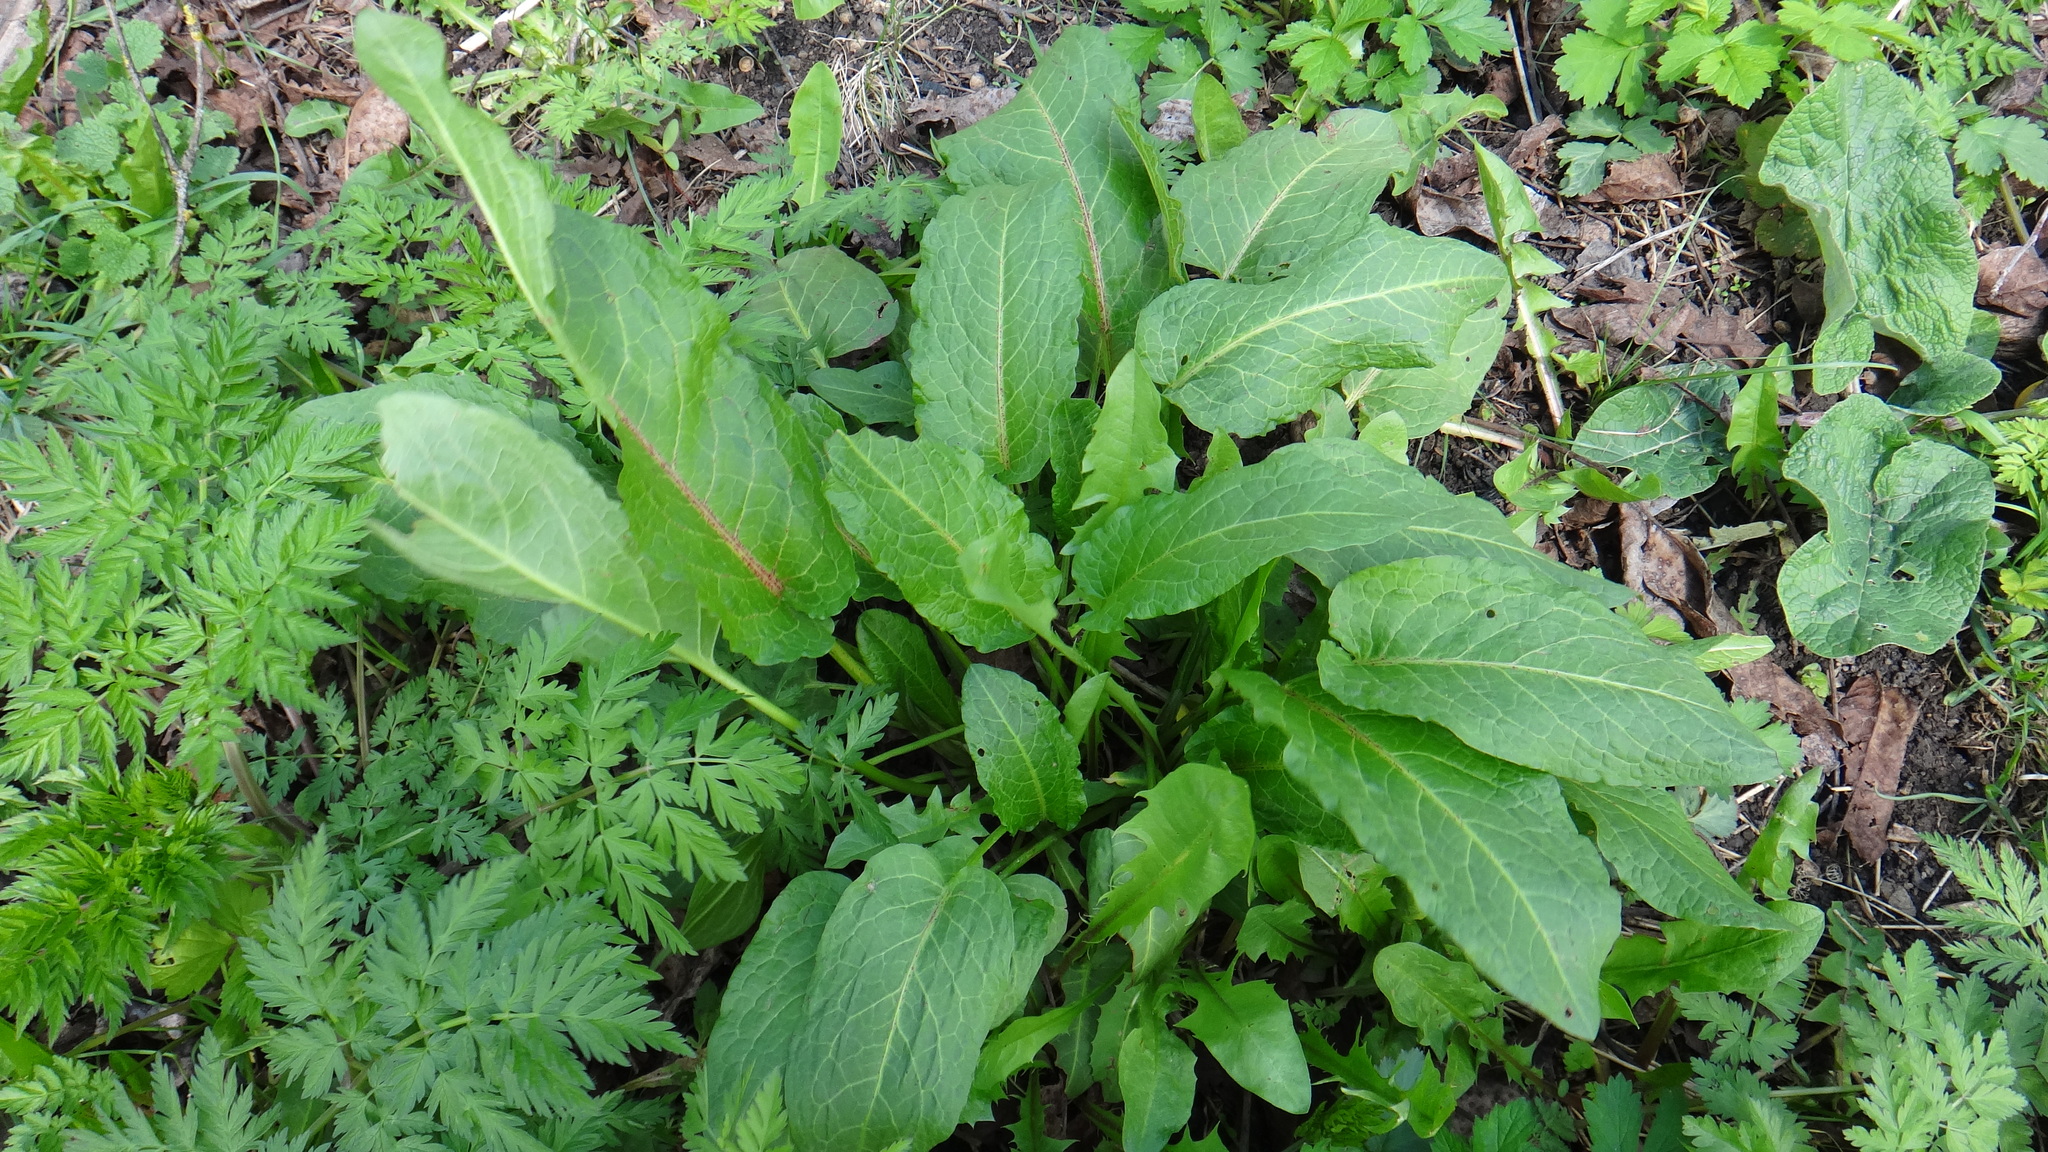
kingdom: Plantae
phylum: Tracheophyta
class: Magnoliopsida
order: Caryophyllales
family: Polygonaceae
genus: Rumex
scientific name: Rumex obtusifolius
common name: Bitter dock
